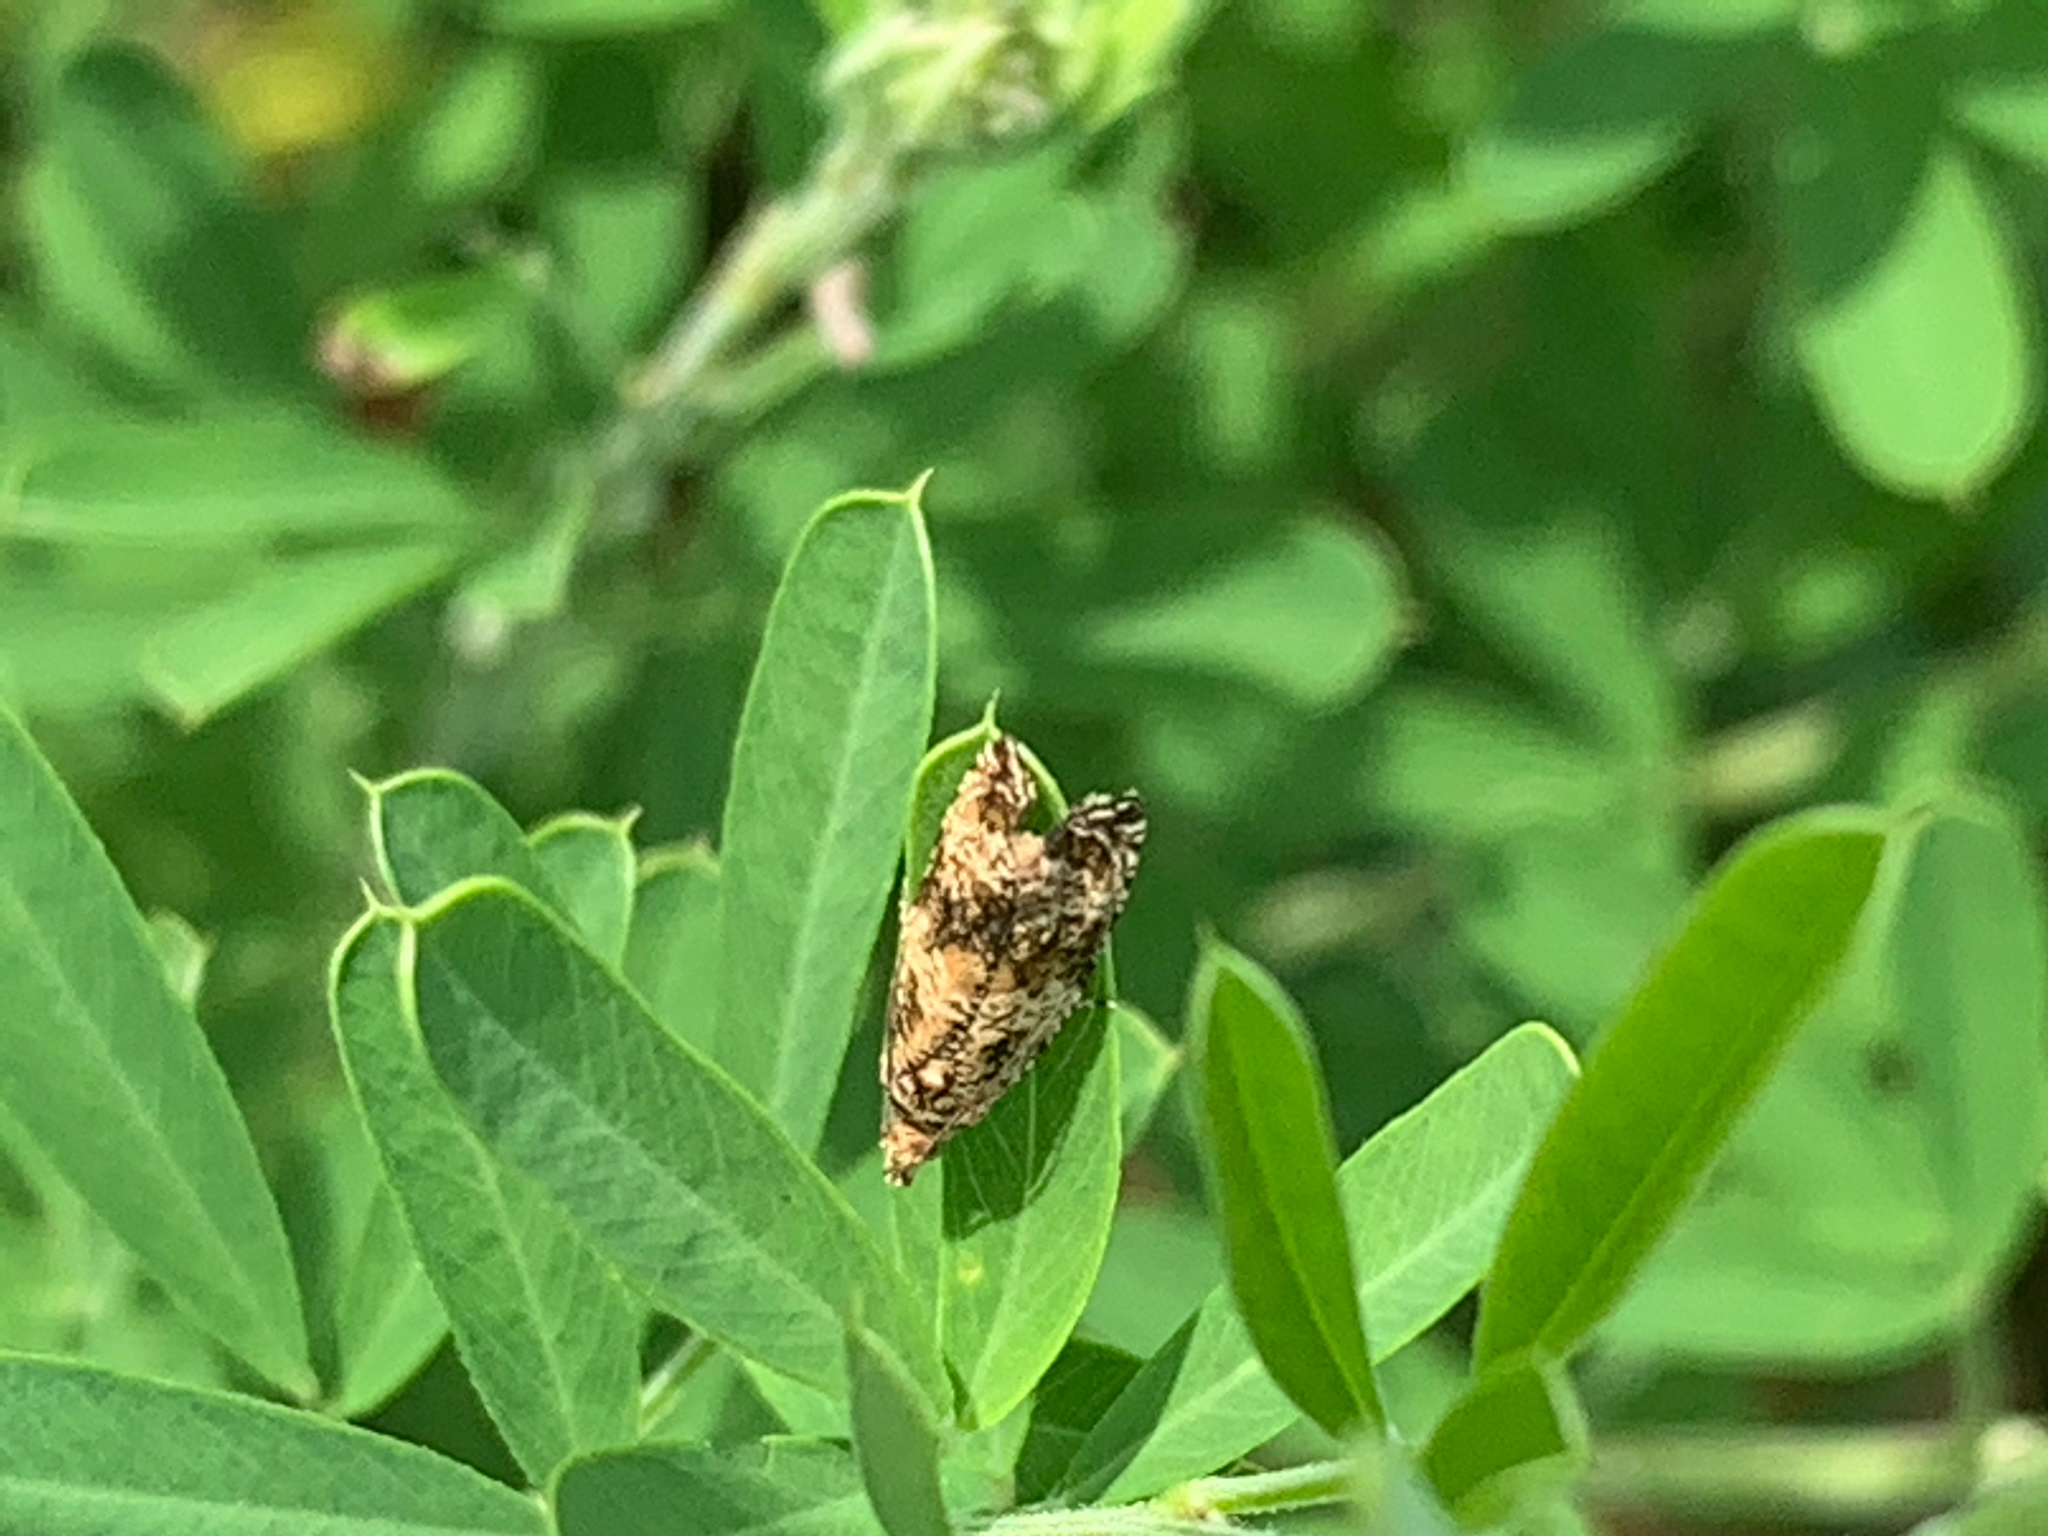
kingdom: Animalia
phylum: Arthropoda
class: Insecta
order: Lepidoptera
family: Tortricidae
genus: Celypha
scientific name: Celypha cespitana
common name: Thyme marble
